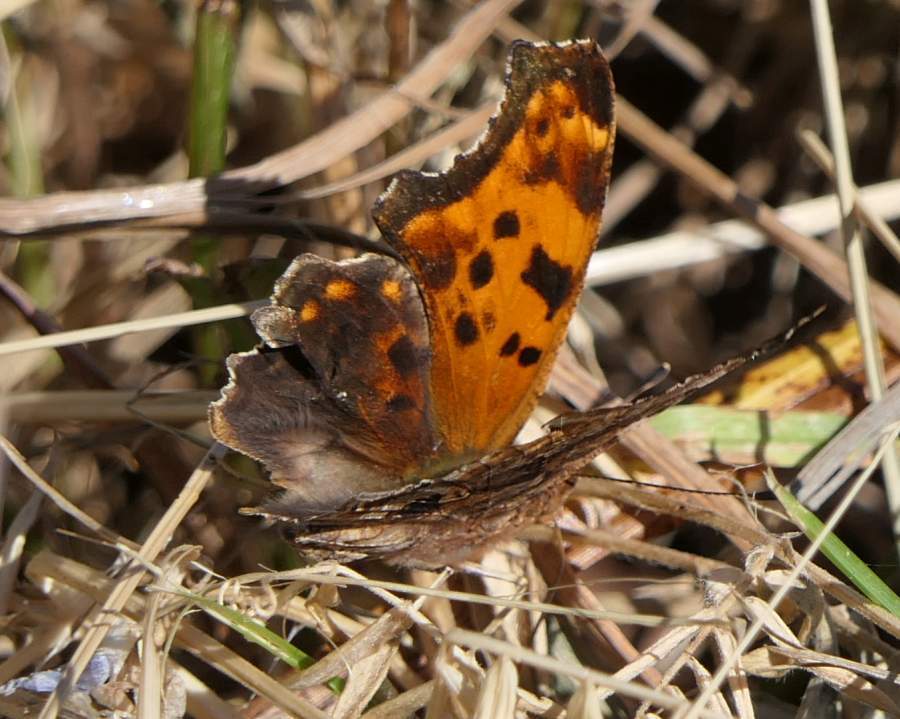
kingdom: Animalia
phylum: Arthropoda
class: Insecta
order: Lepidoptera
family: Nymphalidae
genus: Polygonia
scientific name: Polygonia comma
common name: Eastern comma
